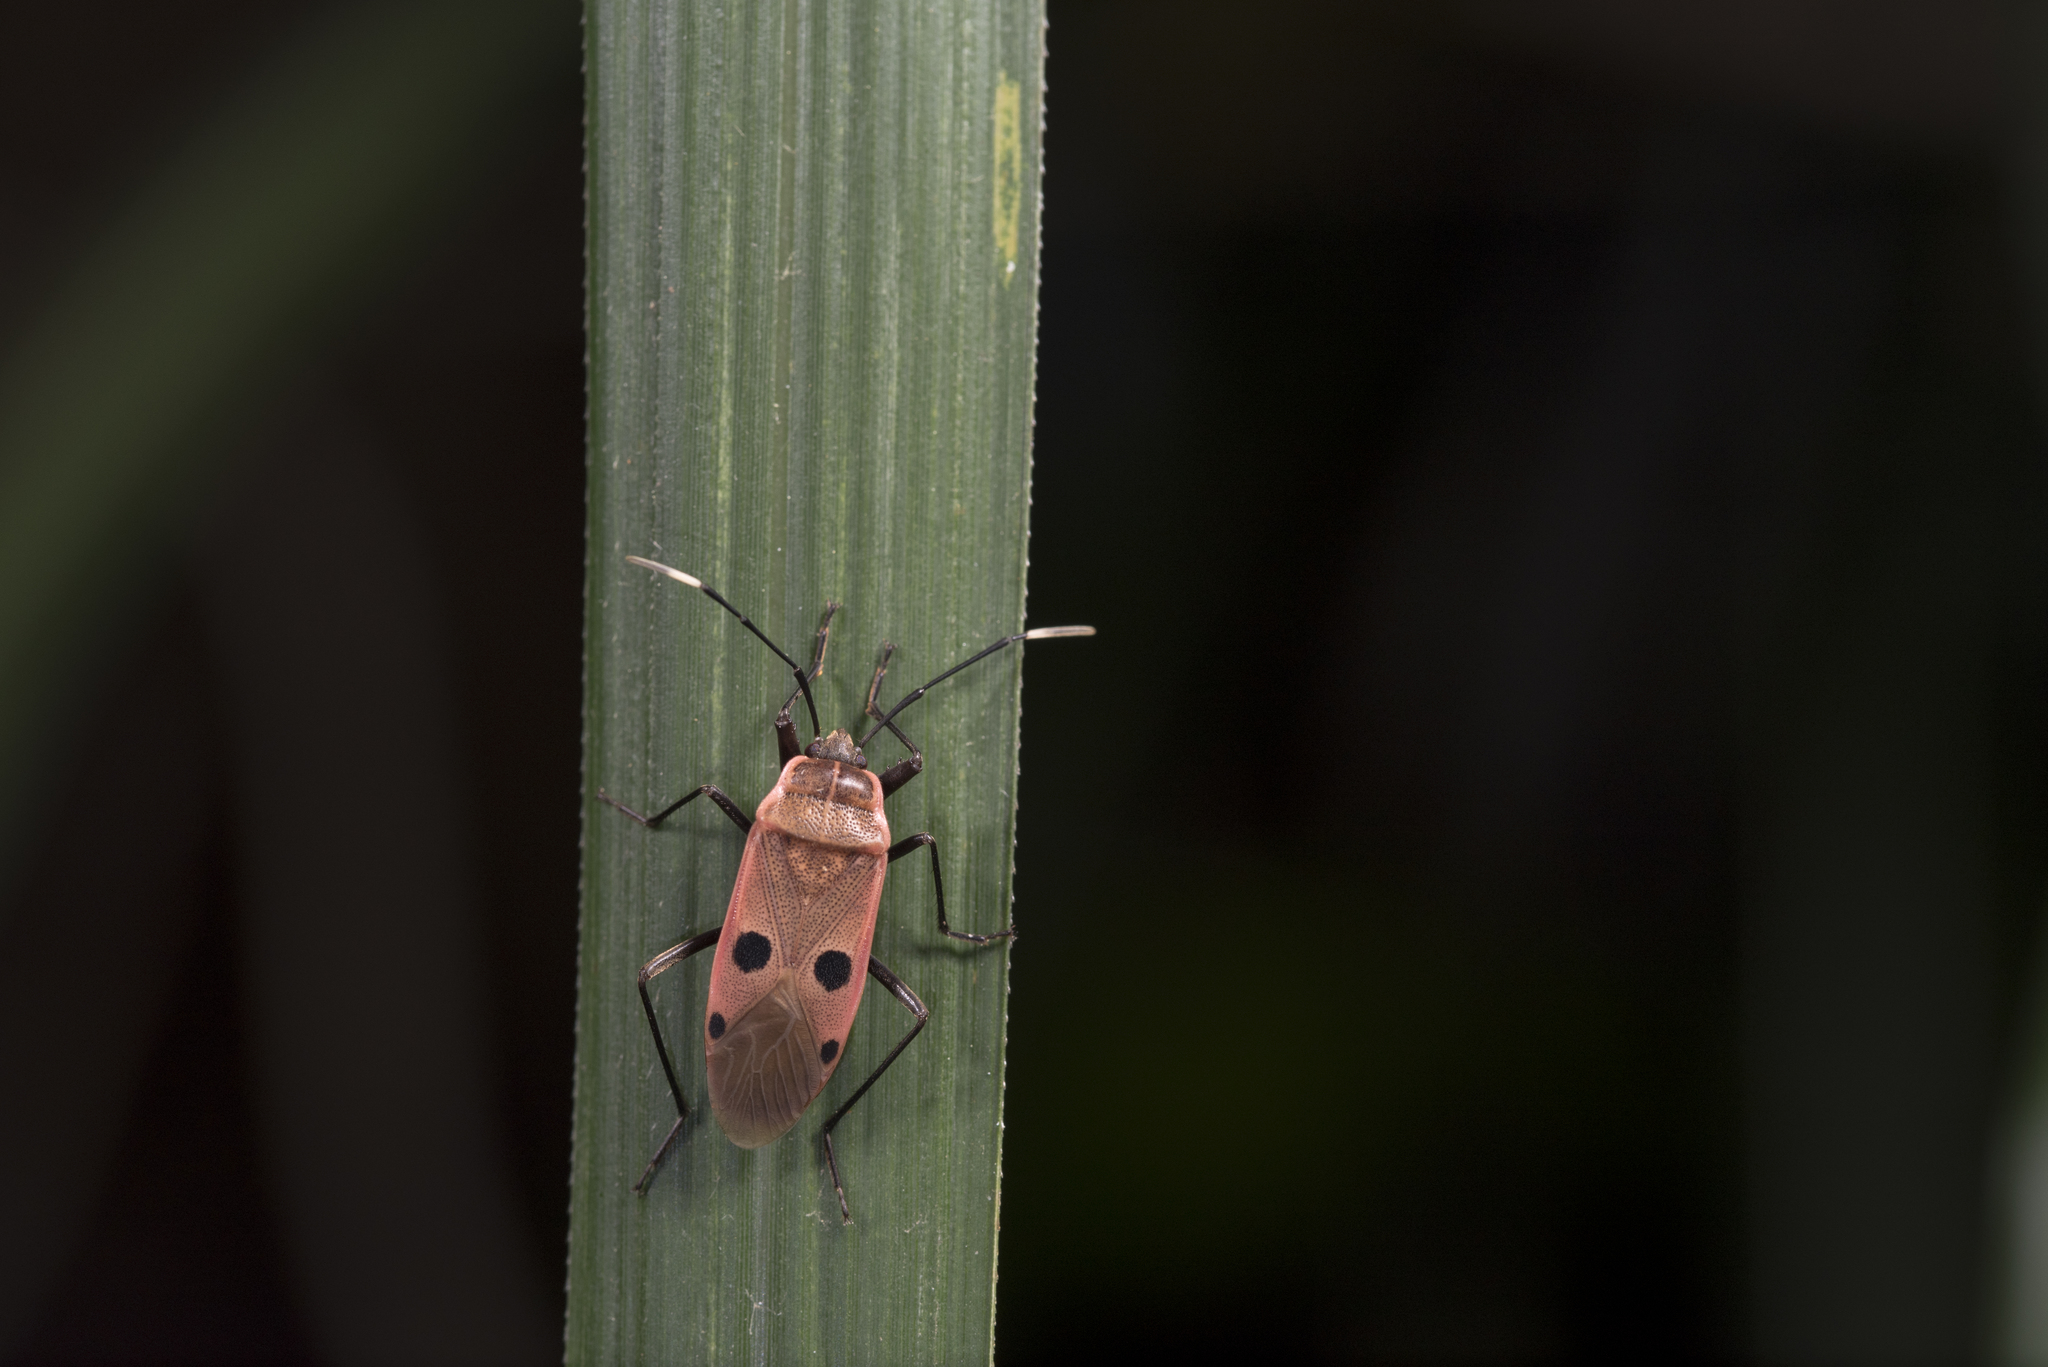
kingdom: Animalia
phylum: Arthropoda
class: Insecta
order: Hemiptera
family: Largidae
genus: Physopelta
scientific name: Physopelta quadriguttata
